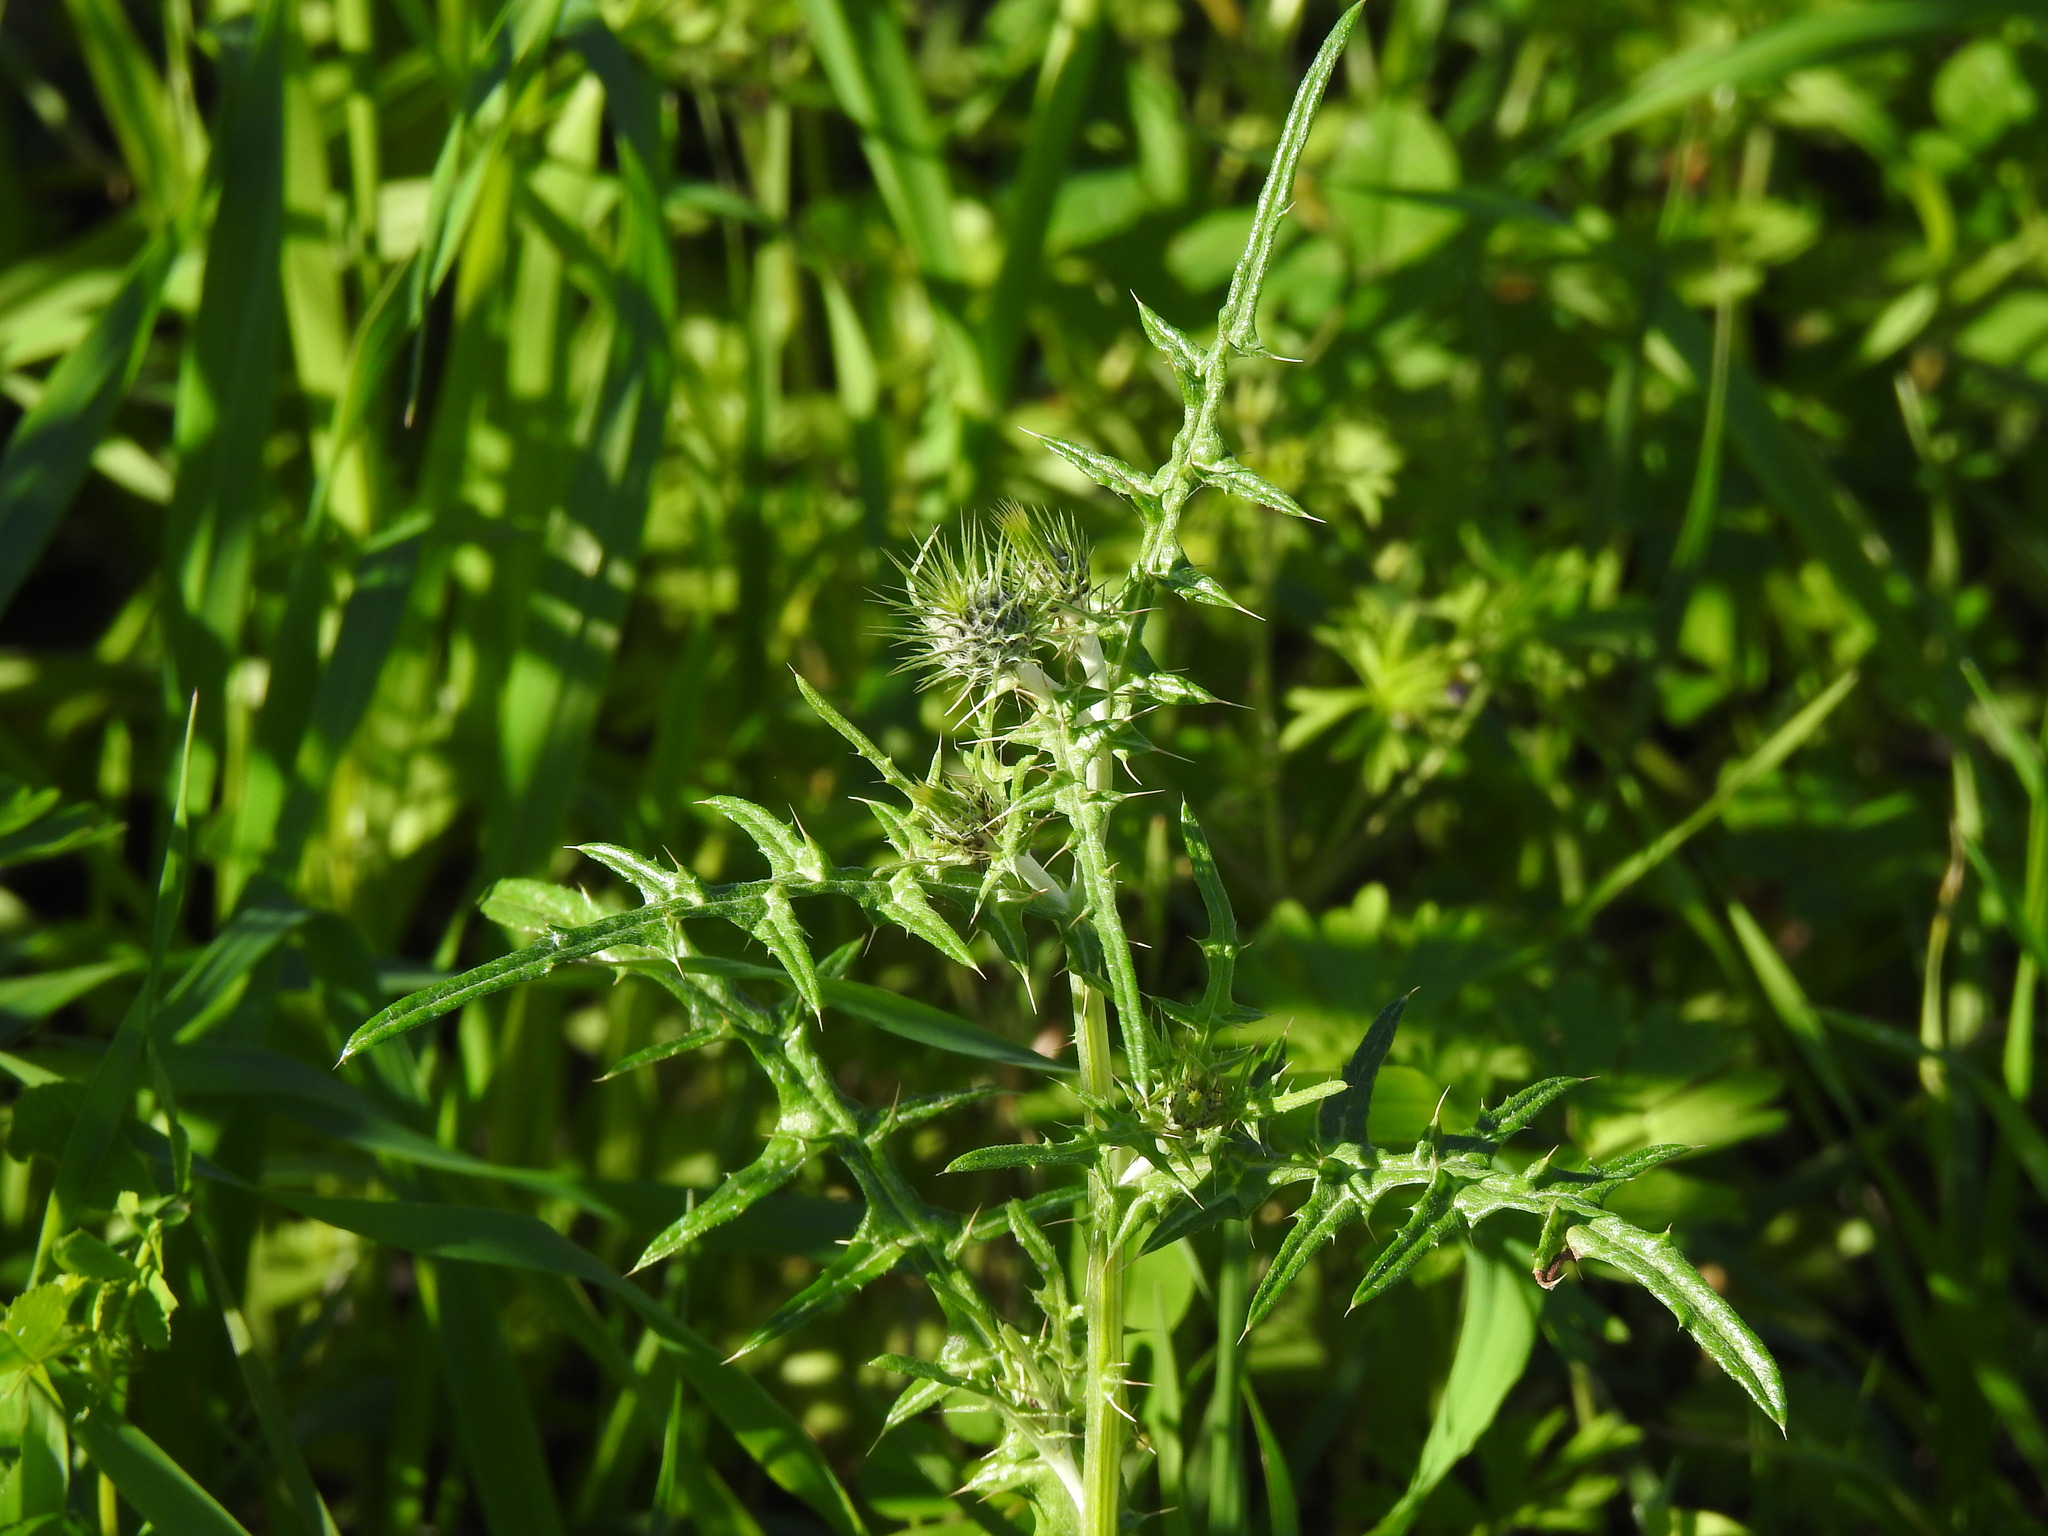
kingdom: Plantae
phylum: Tracheophyta
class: Magnoliopsida
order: Asterales
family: Asteraceae
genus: Galactites
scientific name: Galactites tomentosa
